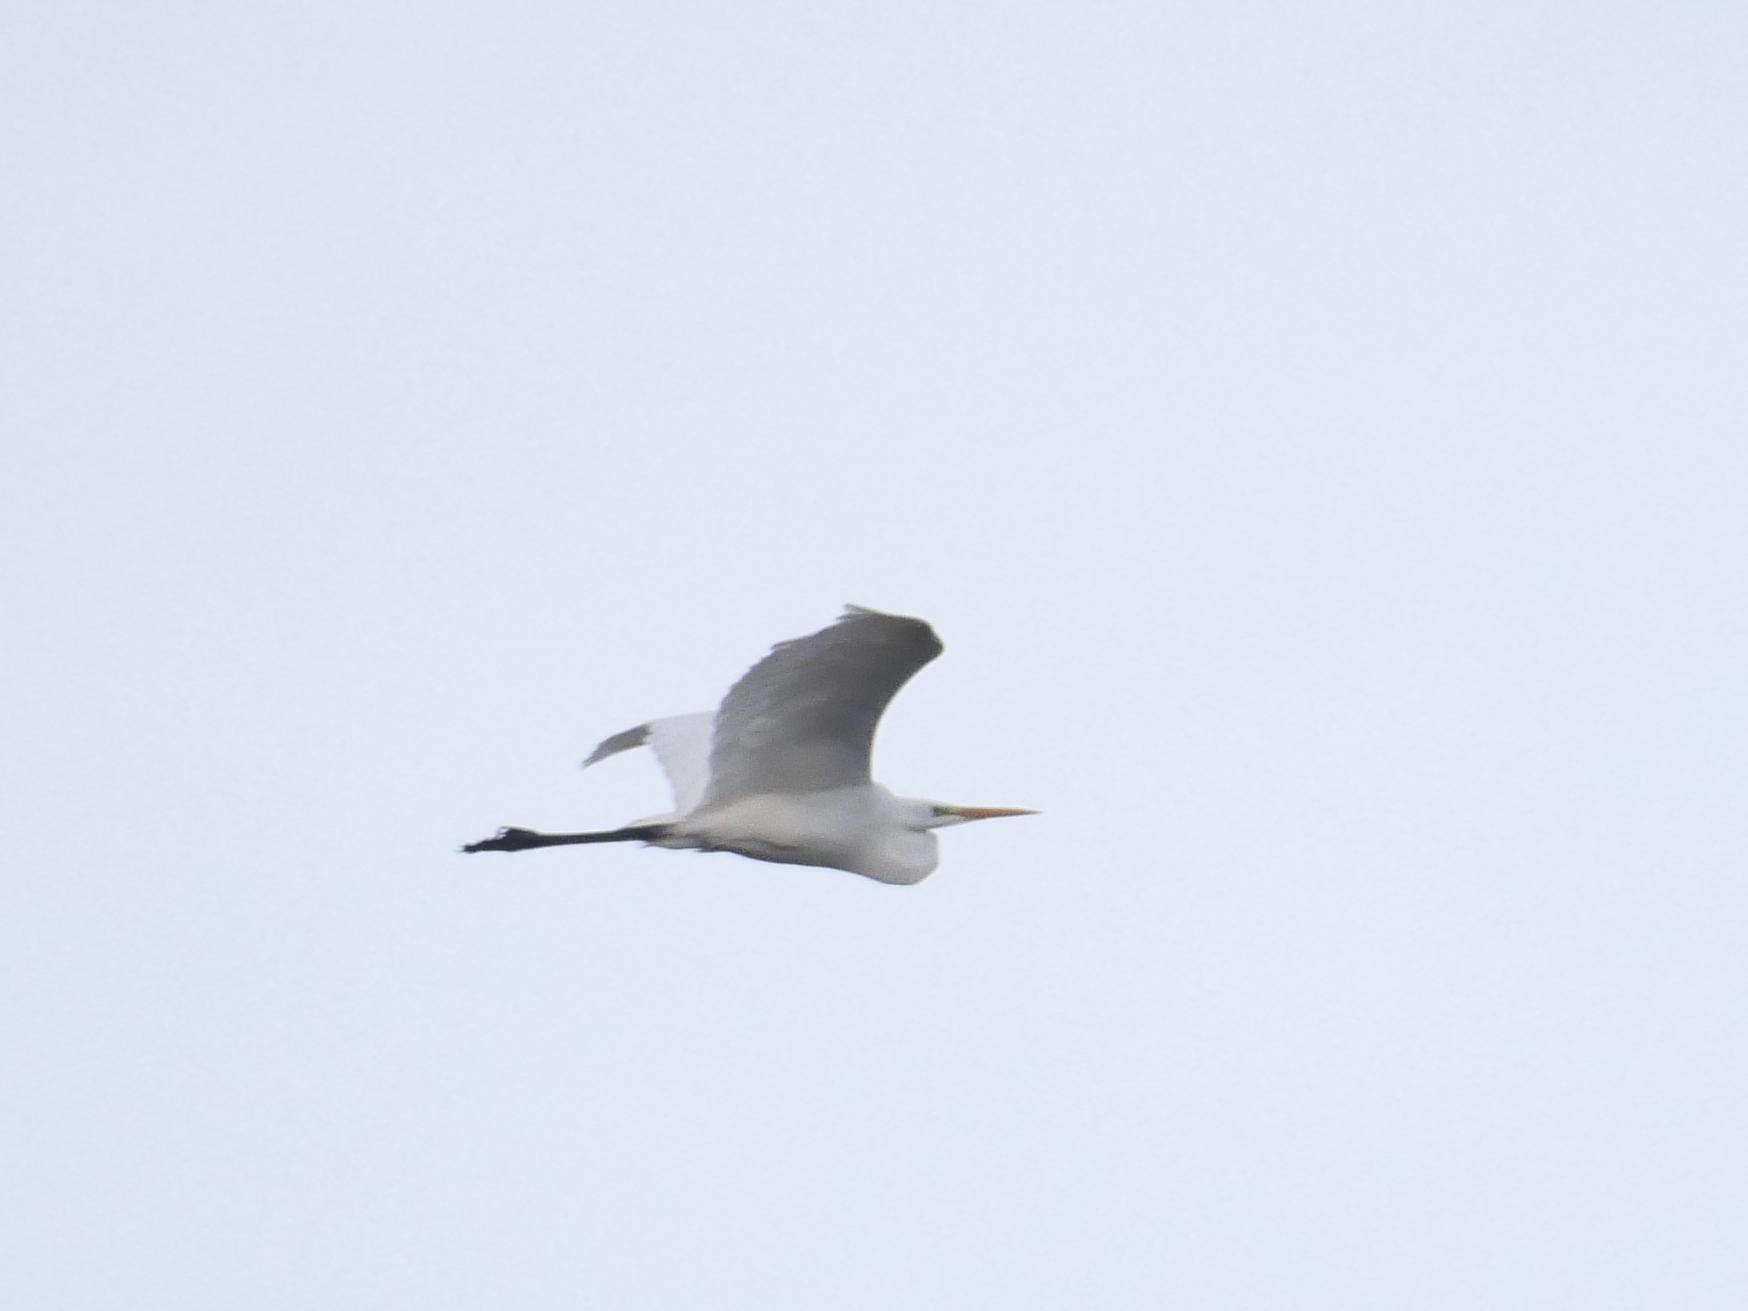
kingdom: Animalia
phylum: Chordata
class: Aves
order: Pelecaniformes
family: Ardeidae
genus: Ardea
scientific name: Ardea alba
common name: Great egret
